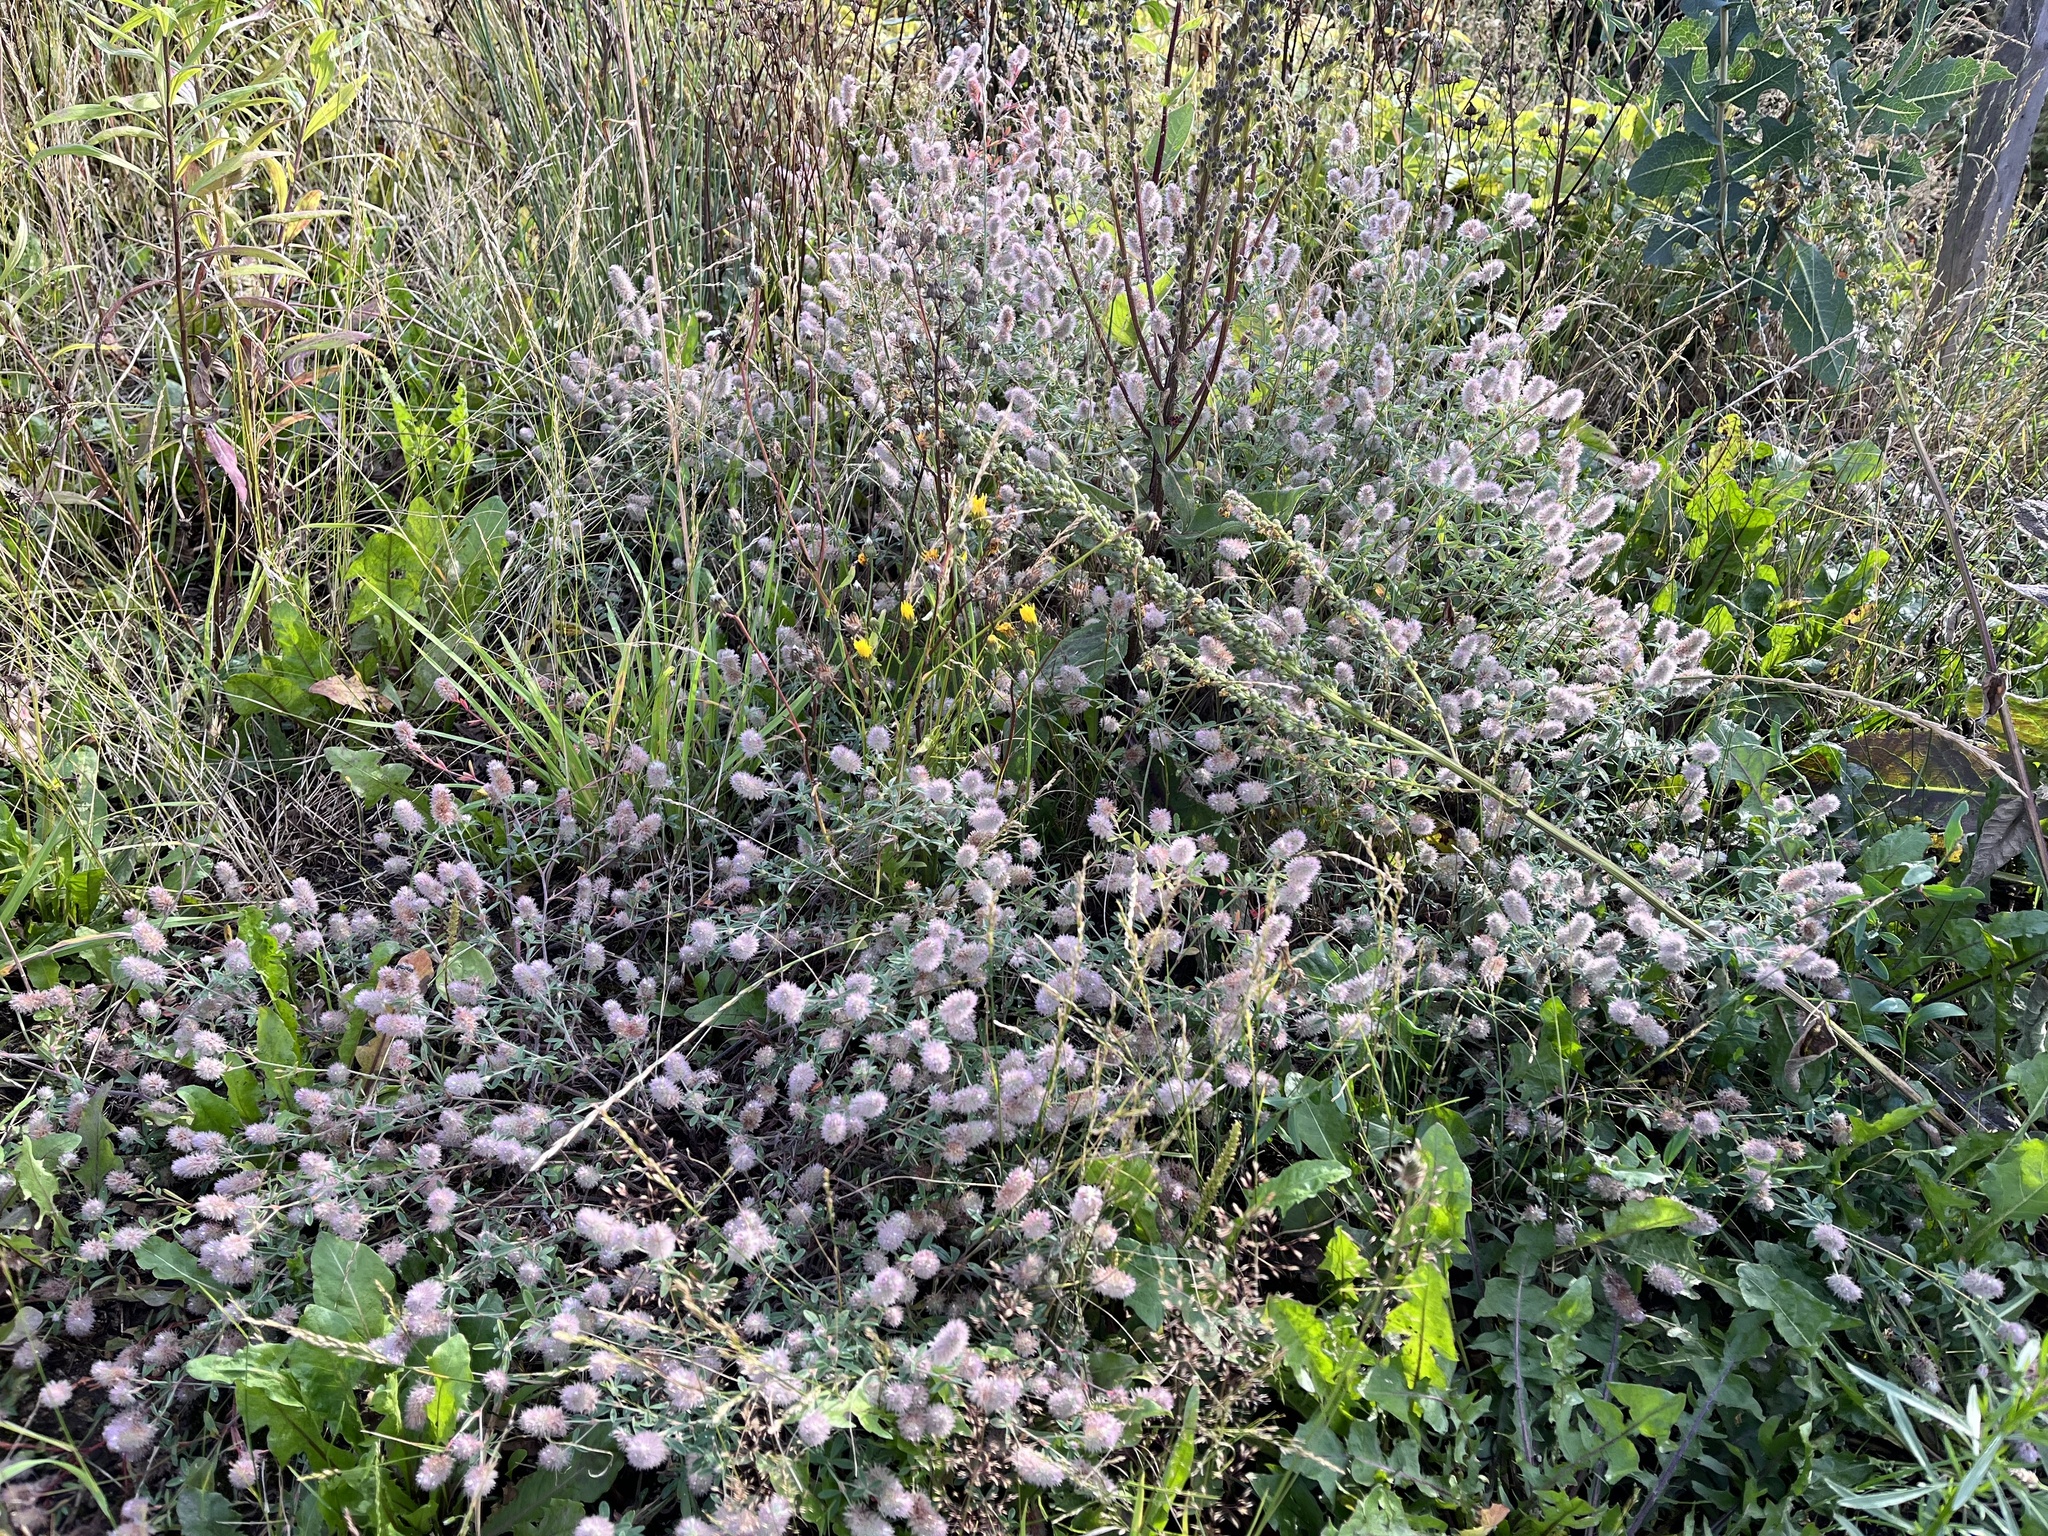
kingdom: Plantae
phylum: Tracheophyta
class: Magnoliopsida
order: Fabales
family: Fabaceae
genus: Trifolium
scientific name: Trifolium arvense
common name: Hare's-foot clover
